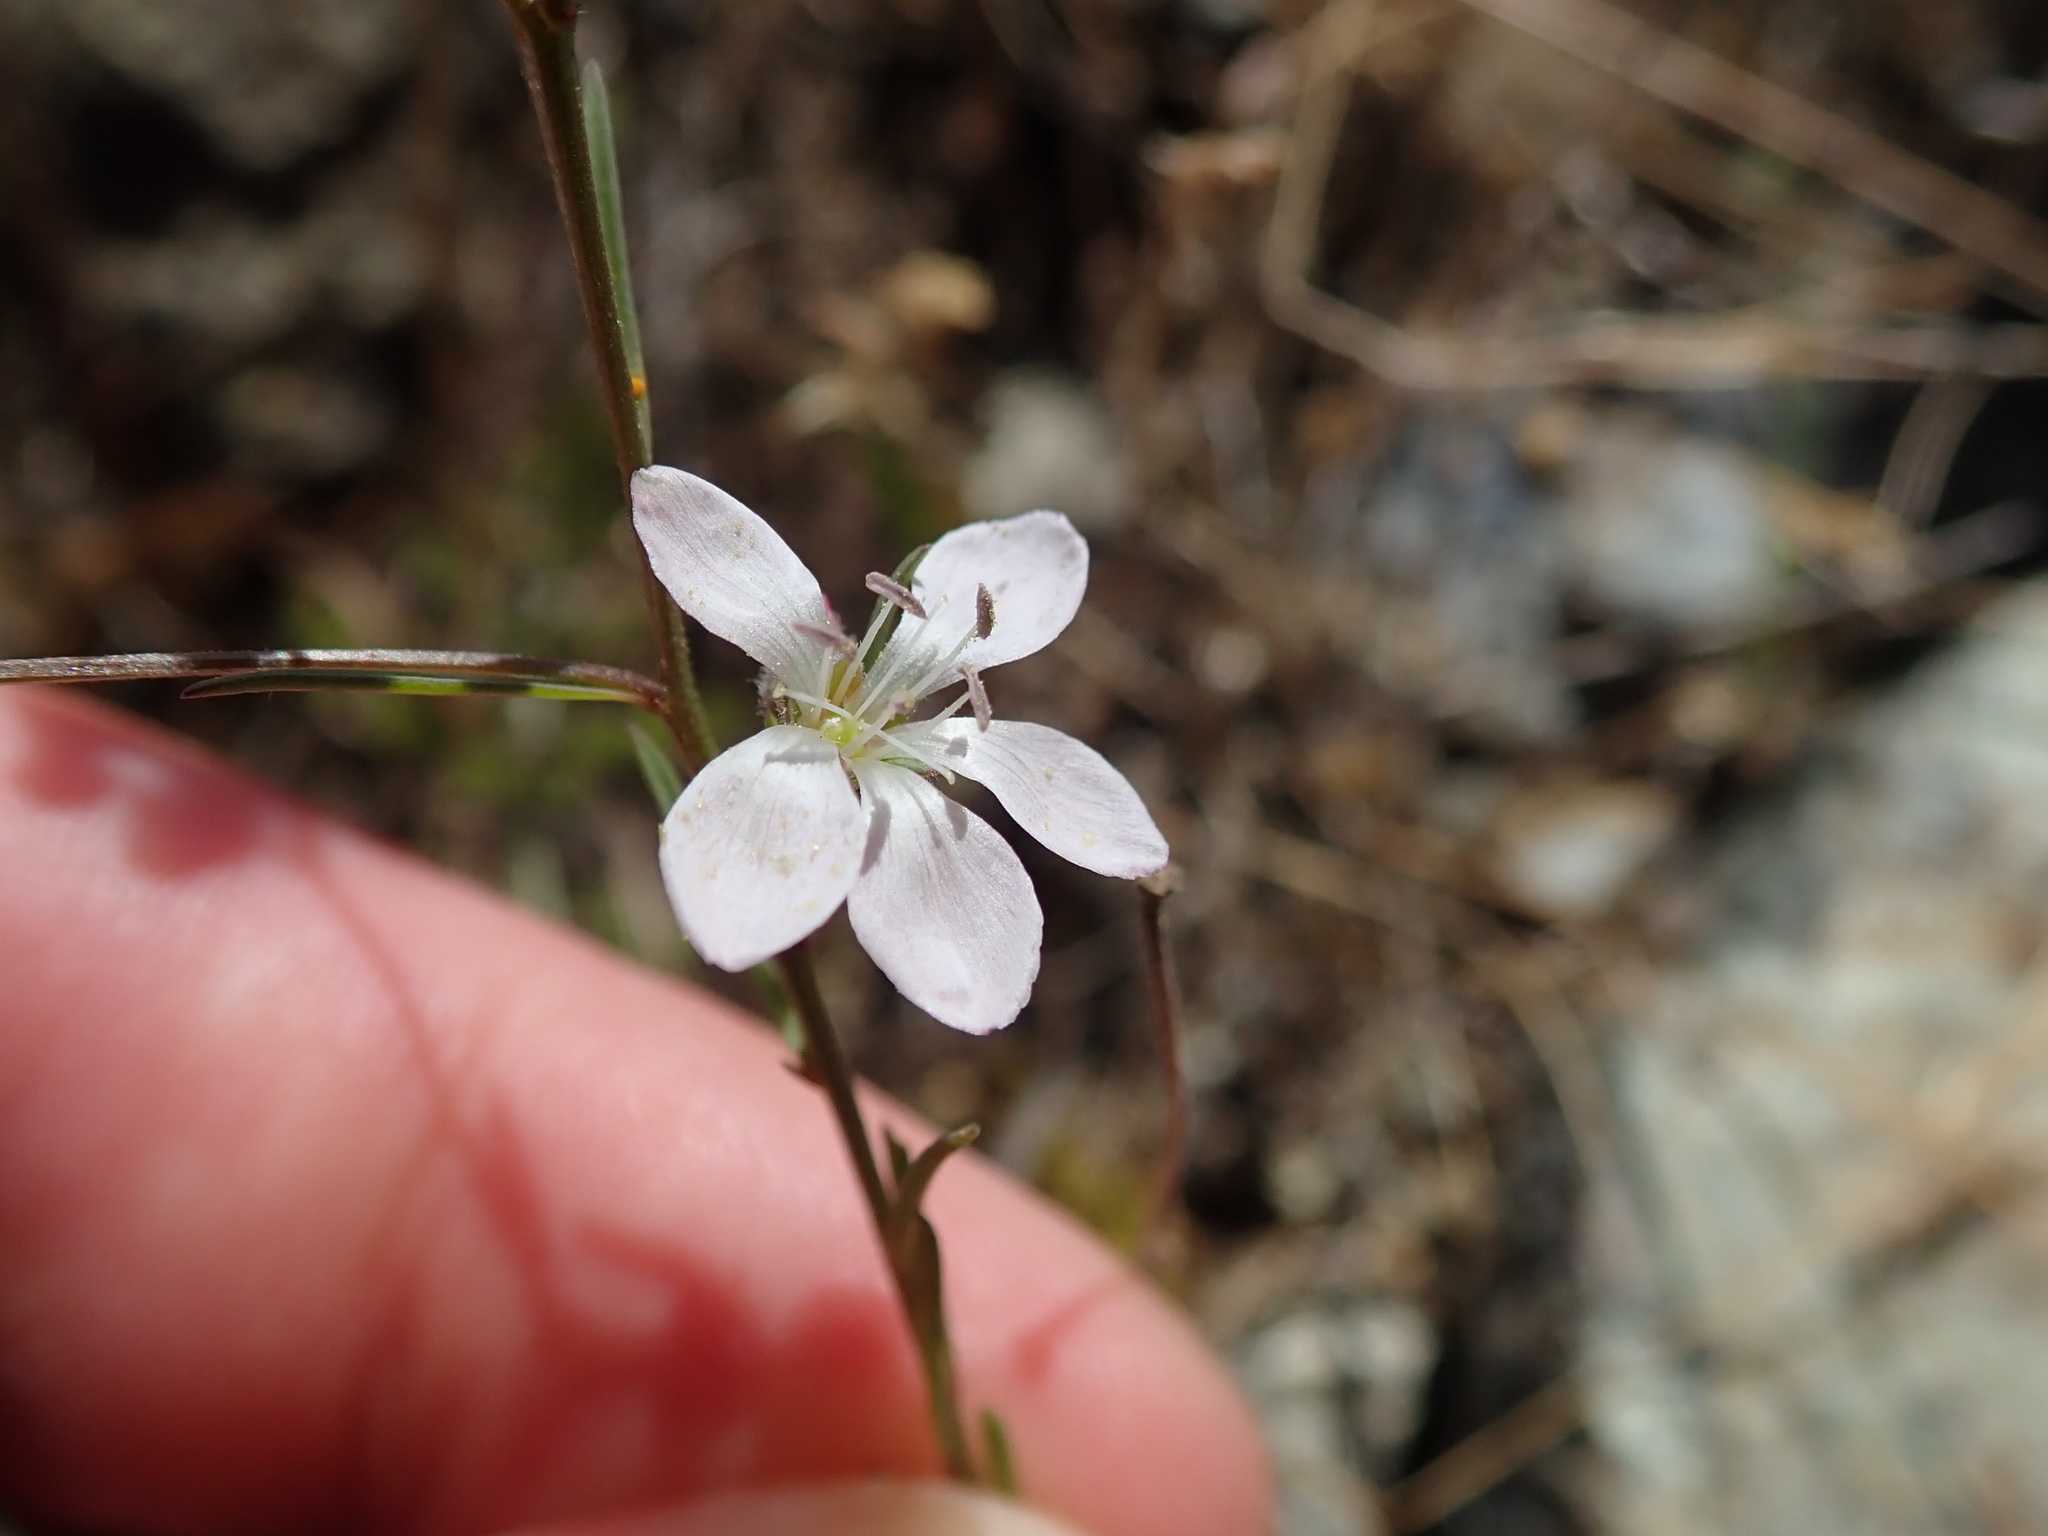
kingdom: Plantae
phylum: Tracheophyta
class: Magnoliopsida
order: Malpighiales
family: Linaceae
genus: Hesperolinon
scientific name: Hesperolinon congestum
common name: Marin dwarf-flax
